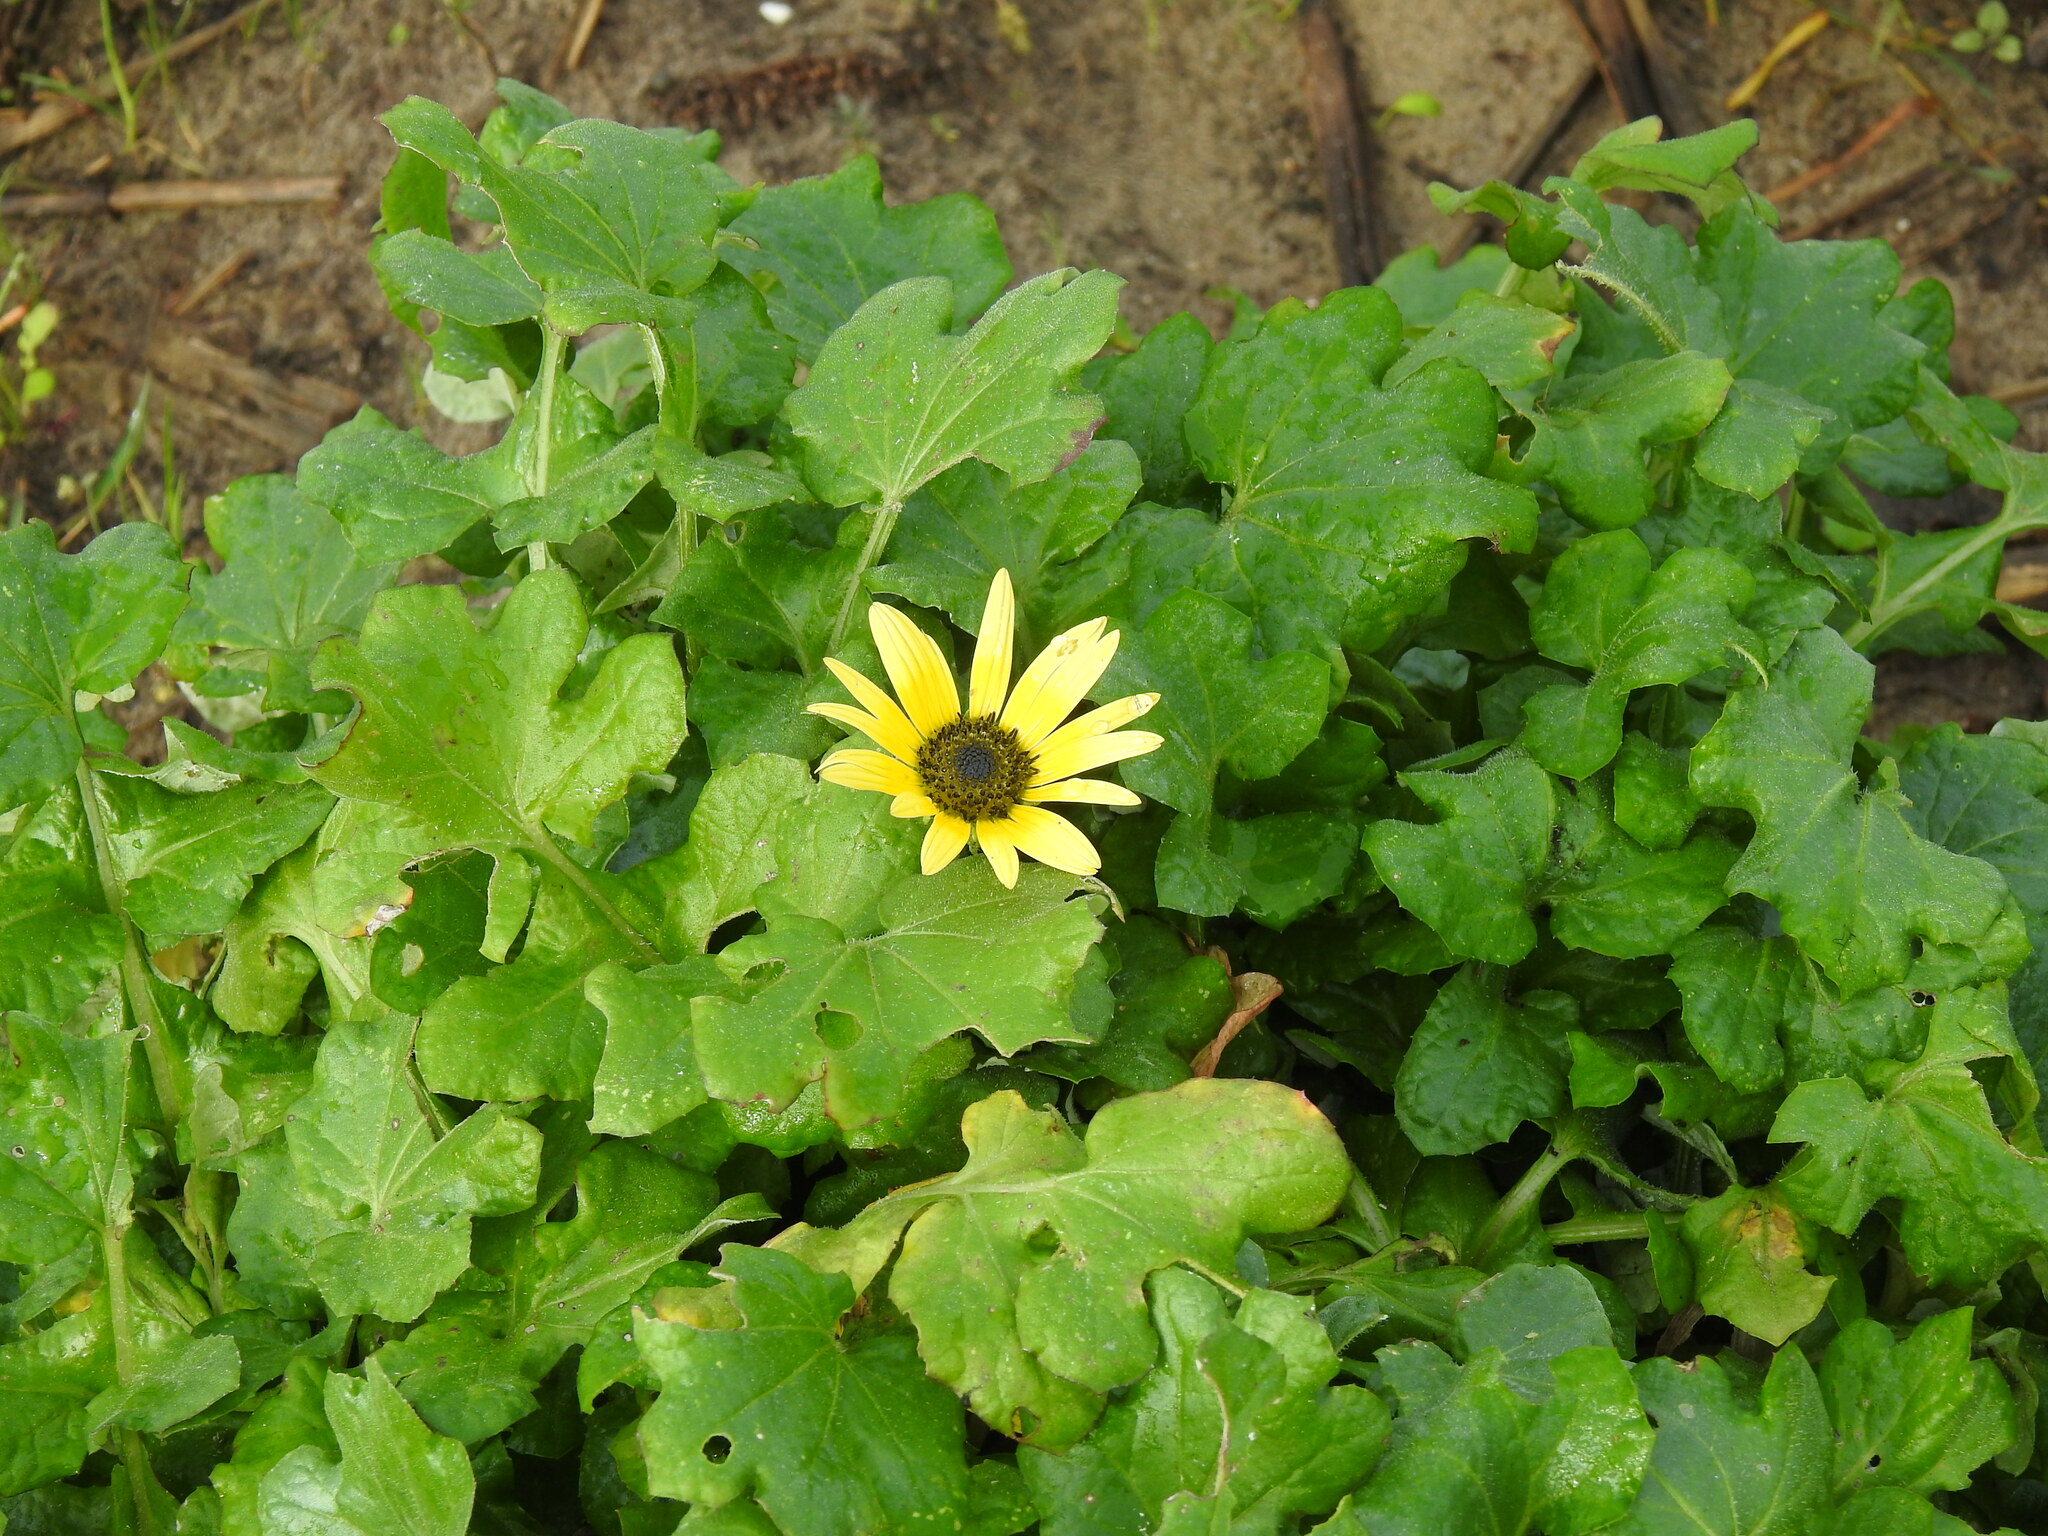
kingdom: Plantae
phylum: Tracheophyta
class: Magnoliopsida
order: Asterales
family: Asteraceae
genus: Arctotheca
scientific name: Arctotheca calendula
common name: Capeweed
